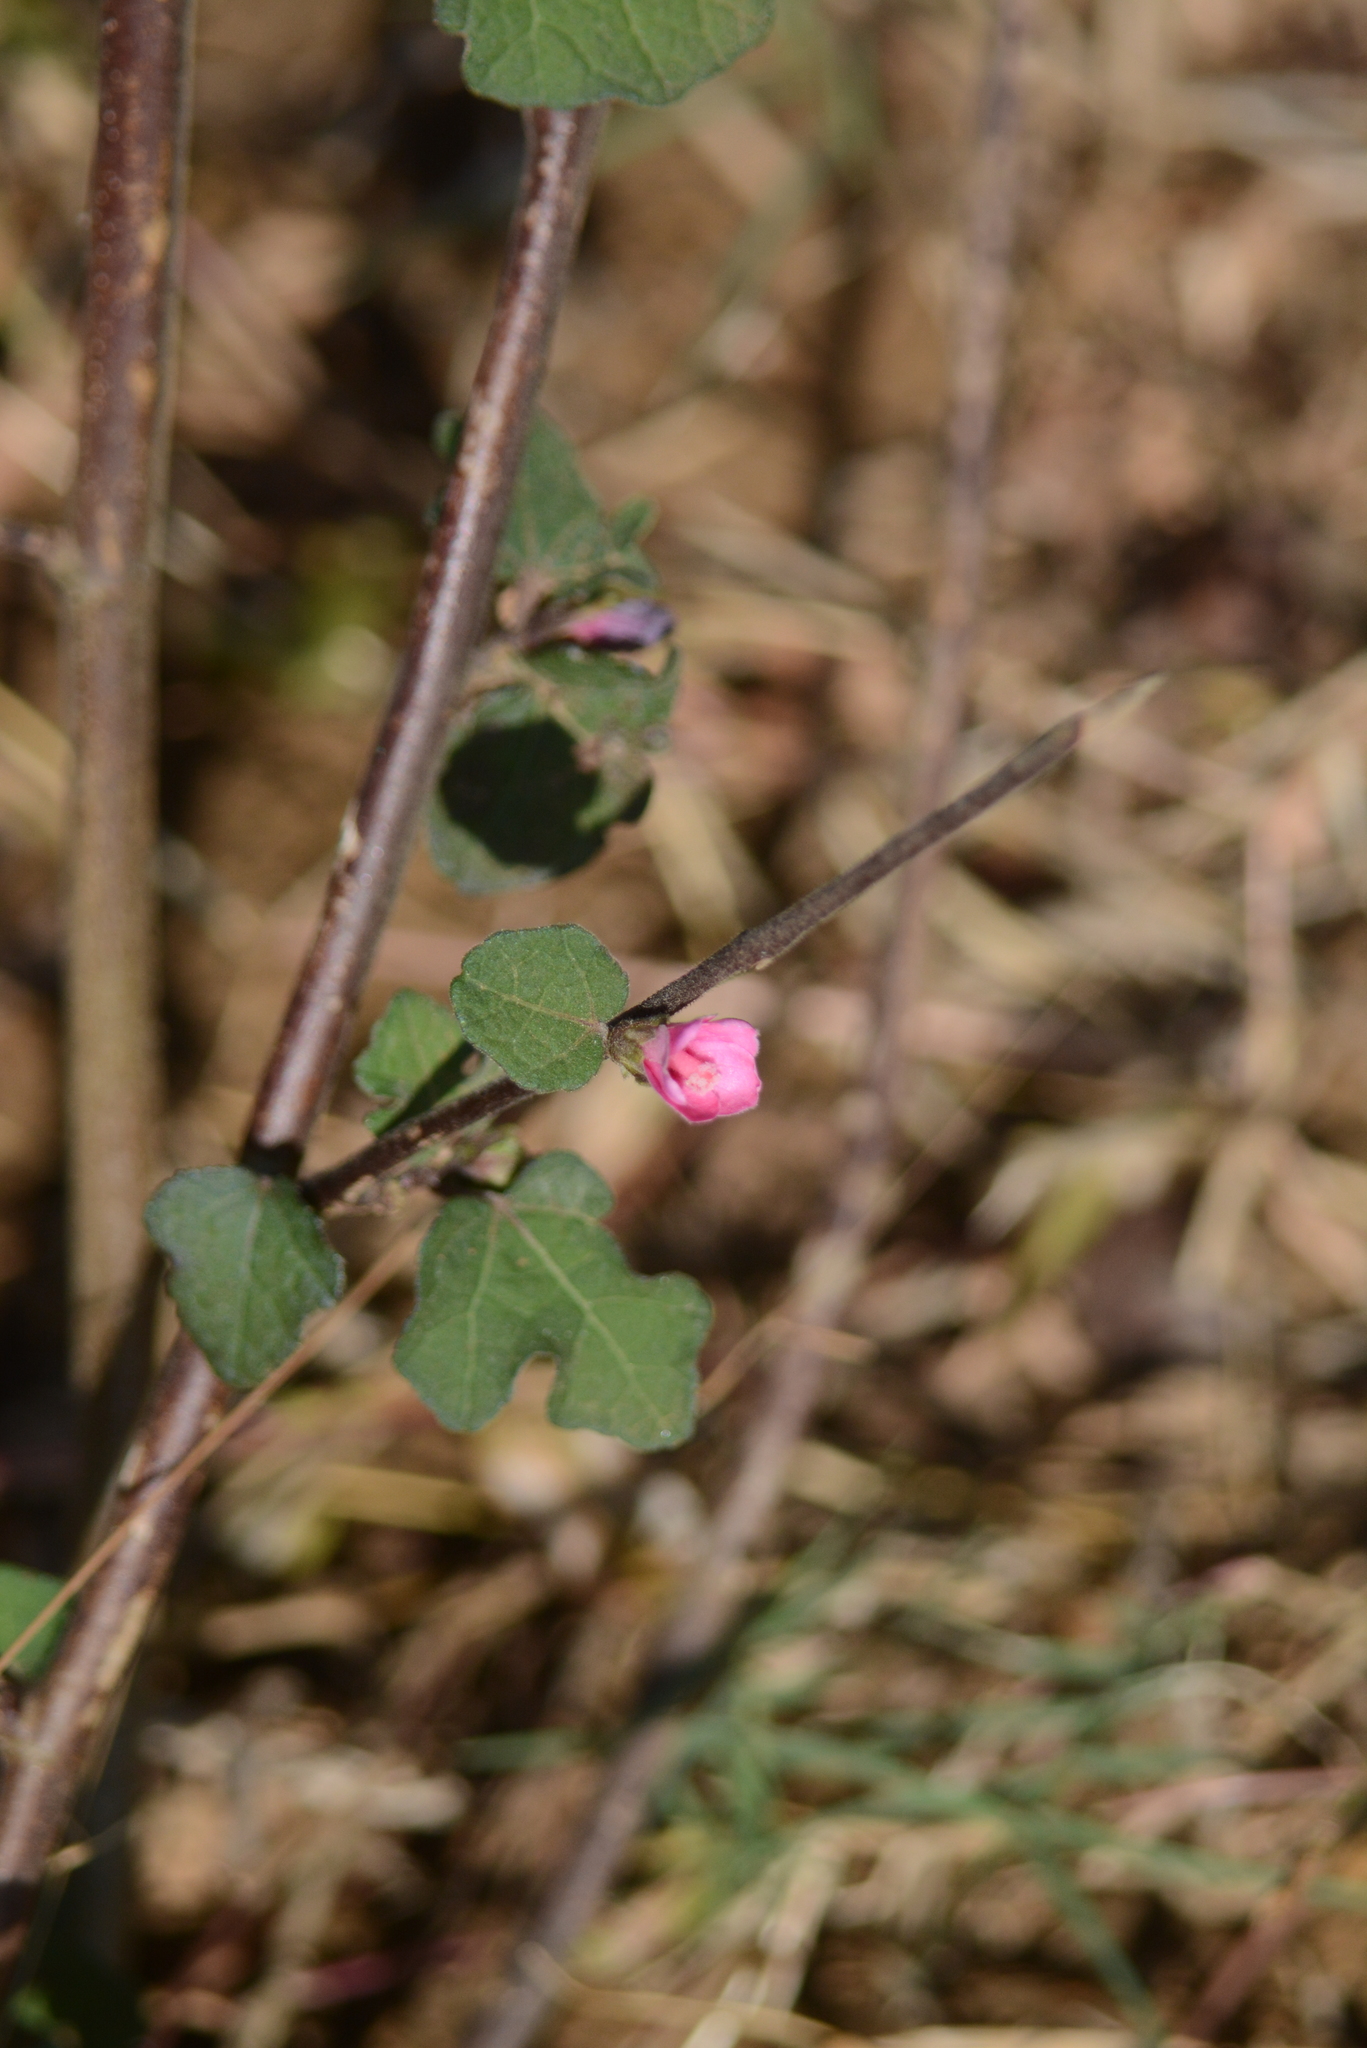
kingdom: Plantae
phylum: Tracheophyta
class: Magnoliopsida
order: Malvales
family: Malvaceae
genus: Urena
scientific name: Urena procumbens
